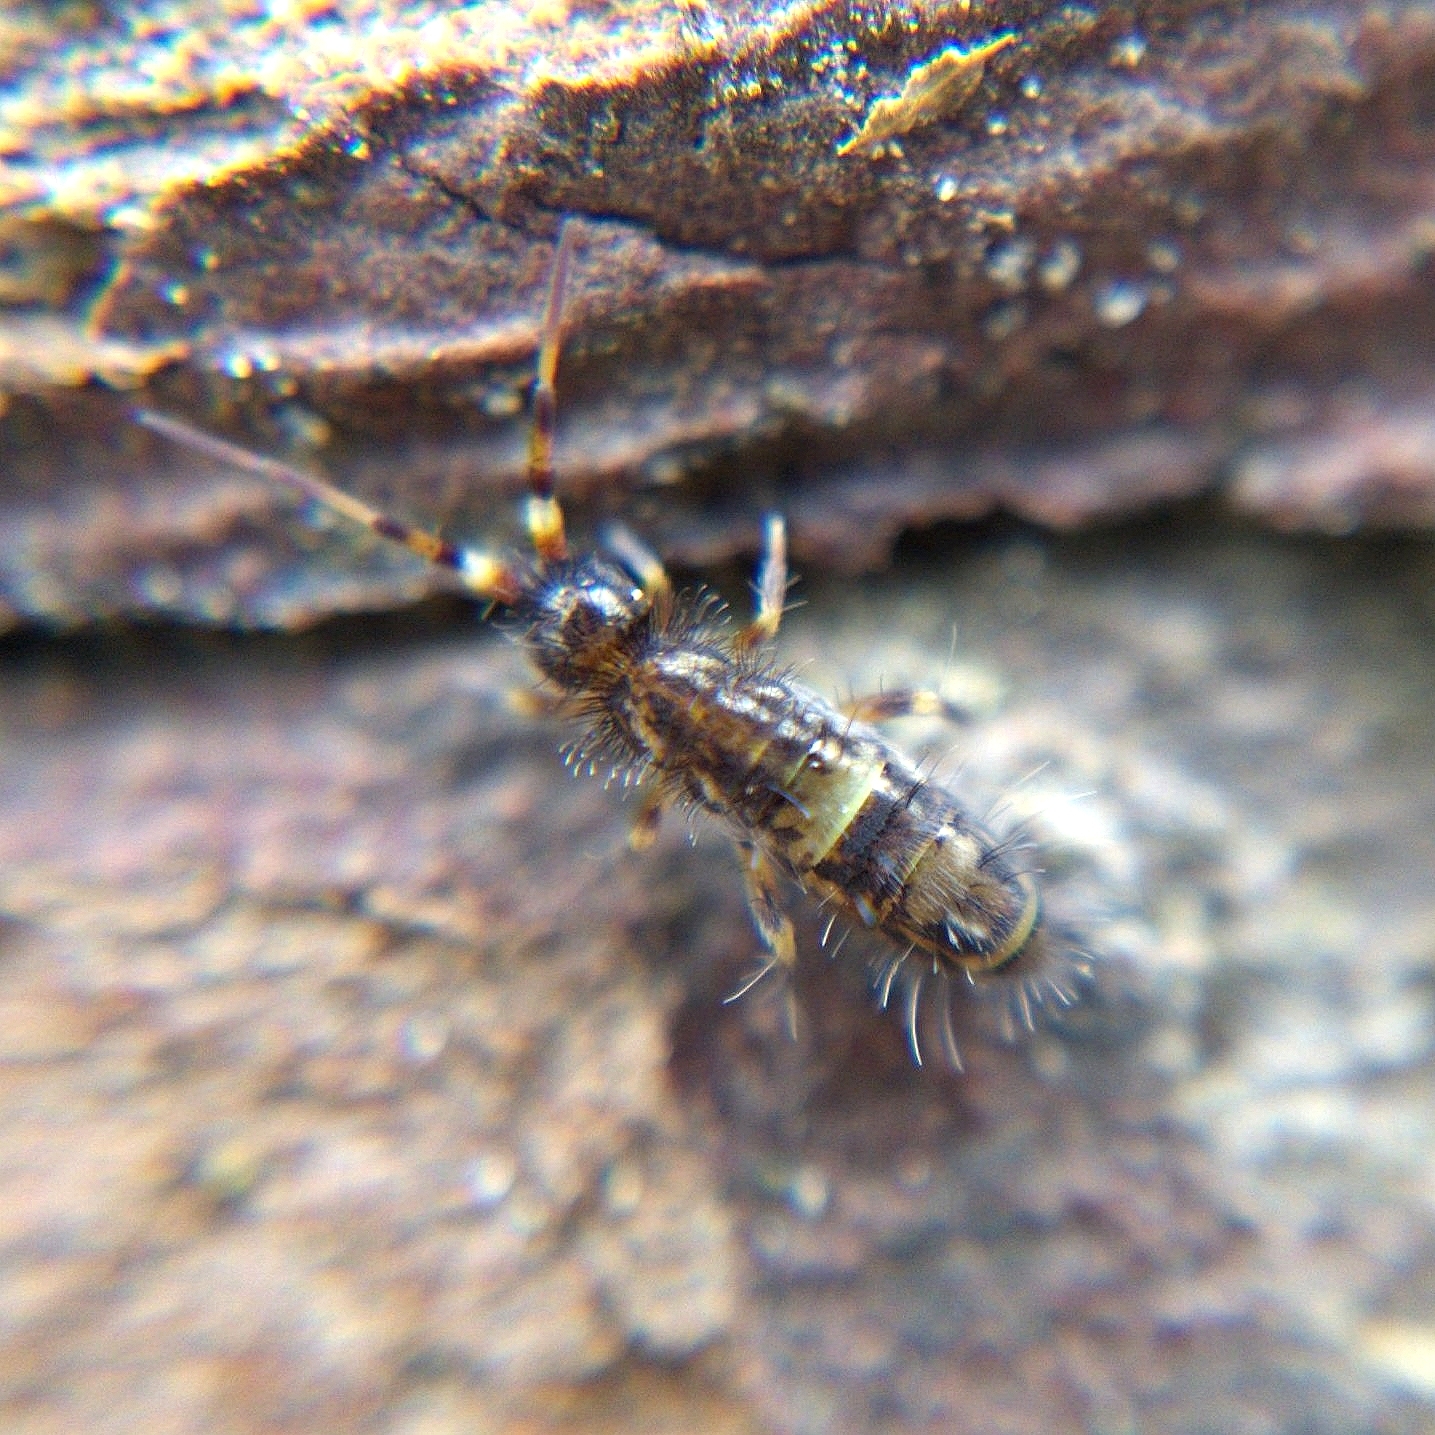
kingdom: Animalia
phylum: Arthropoda
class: Collembola
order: Entomobryomorpha
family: Orchesellidae
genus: Orchesella
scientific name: Orchesella cincta
